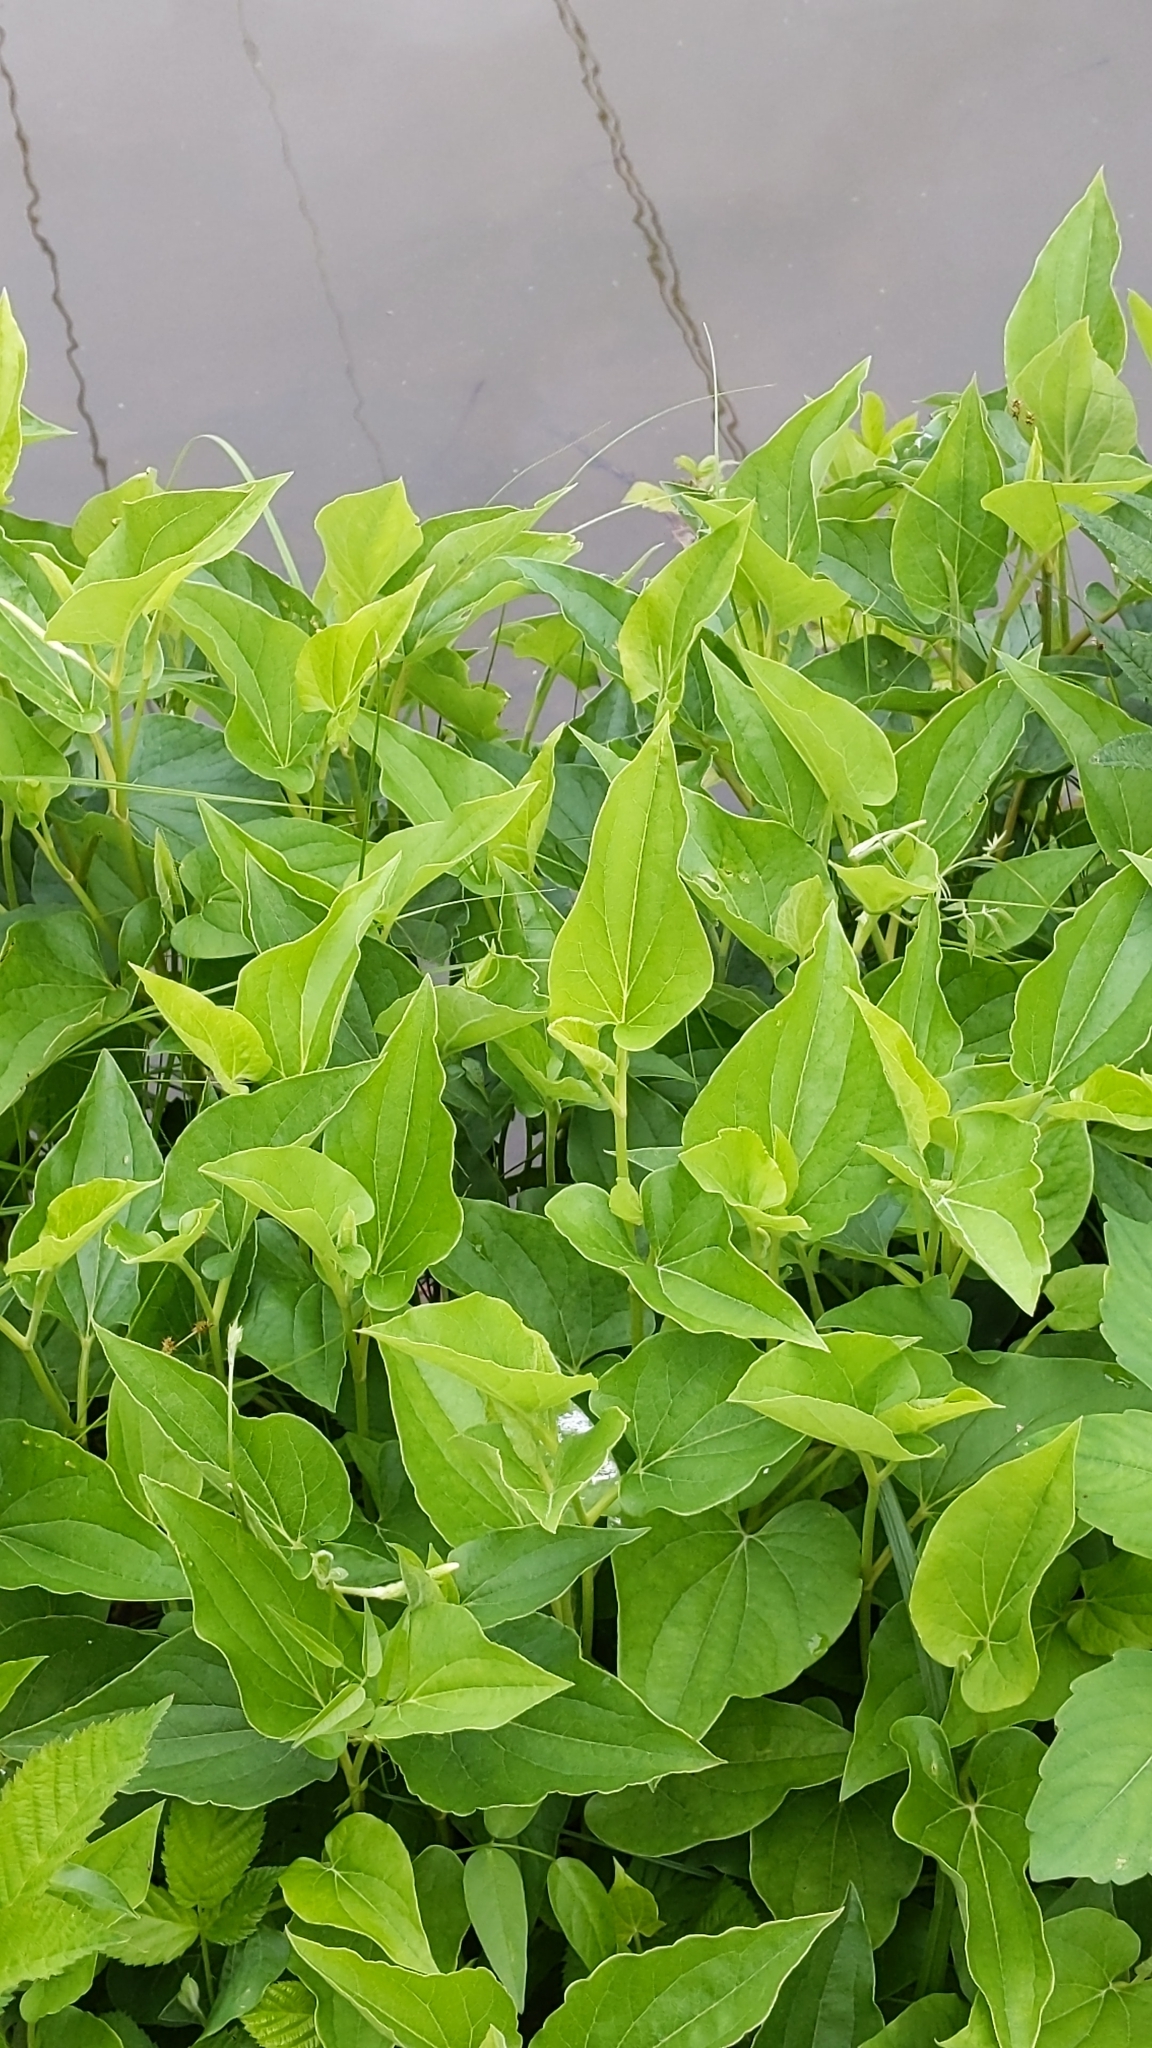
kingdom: Plantae
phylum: Tracheophyta
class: Magnoliopsida
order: Piperales
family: Saururaceae
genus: Saururus
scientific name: Saururus cernuus
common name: Lizard's-tail
